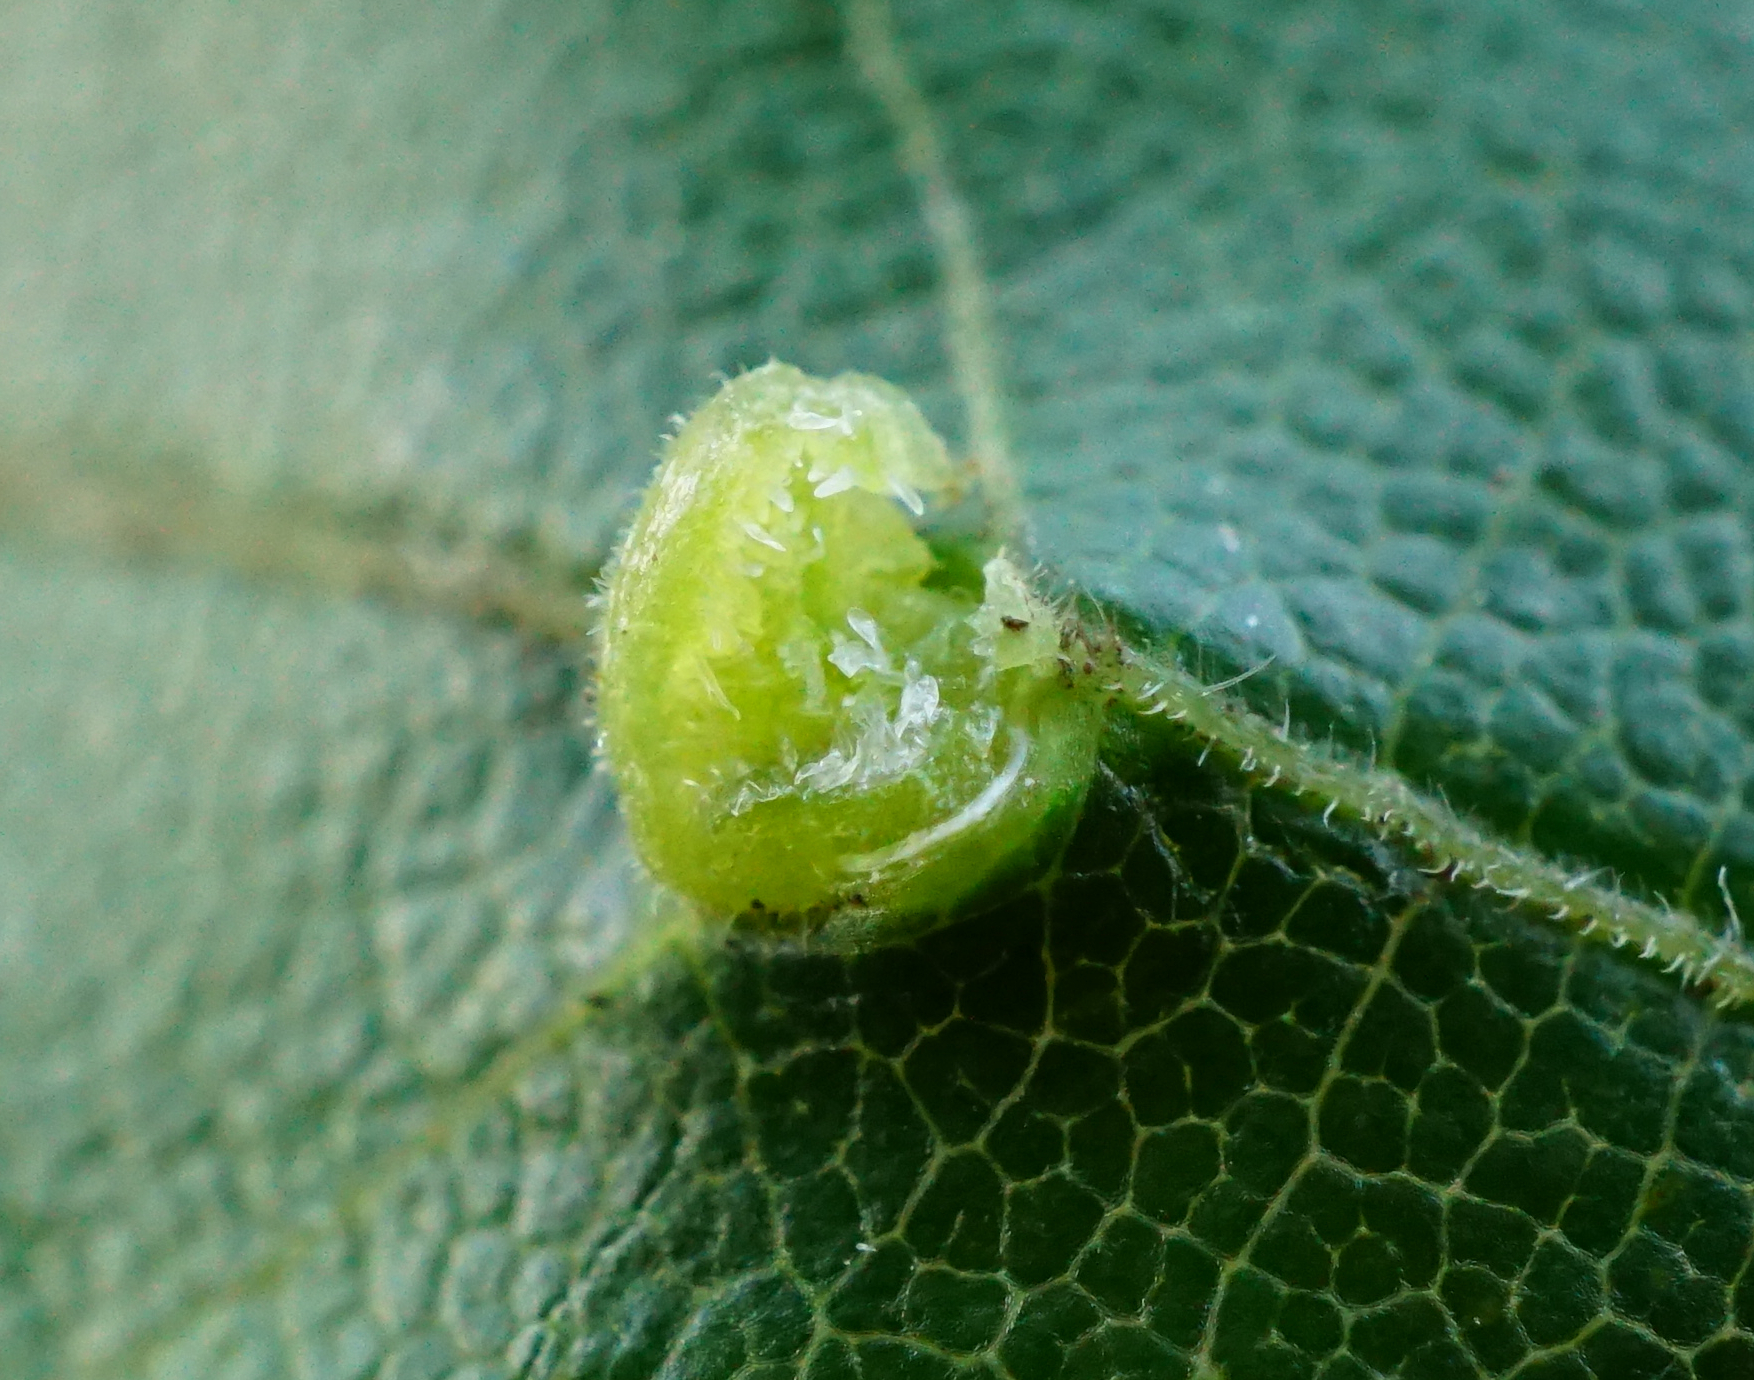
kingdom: Animalia
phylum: Arthropoda
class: Arachnida
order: Trombidiformes
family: Eriophyidae
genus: Aceria
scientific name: Aceria macrochelus
